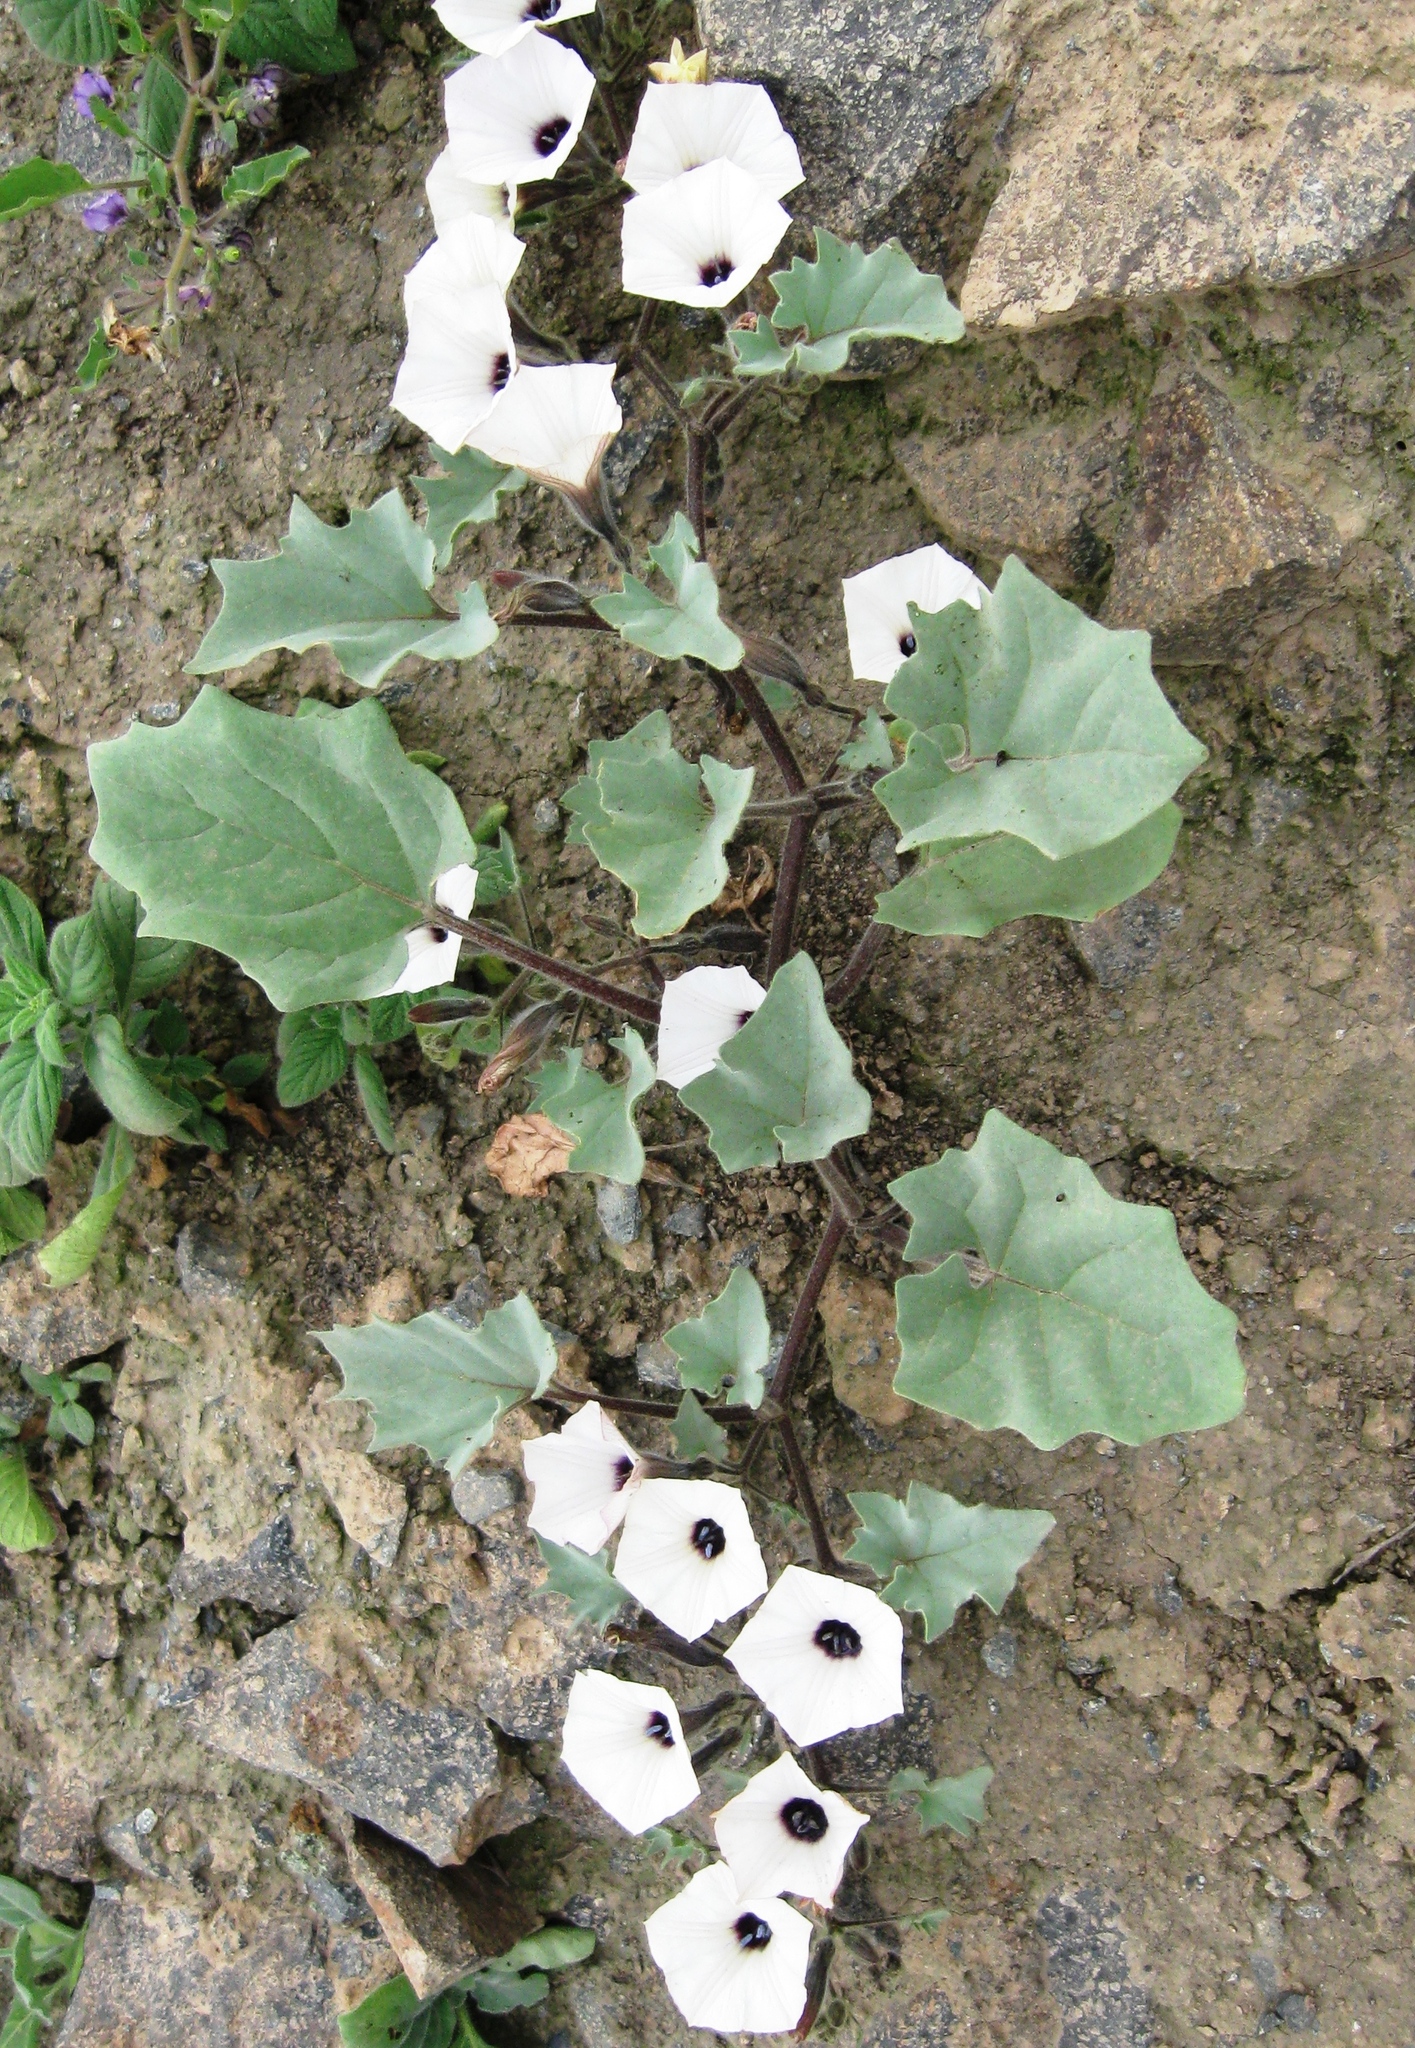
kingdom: Plantae
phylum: Tracheophyta
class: Magnoliopsida
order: Solanales
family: Solanaceae
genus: Exodeconus
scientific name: Exodeconus maritima
